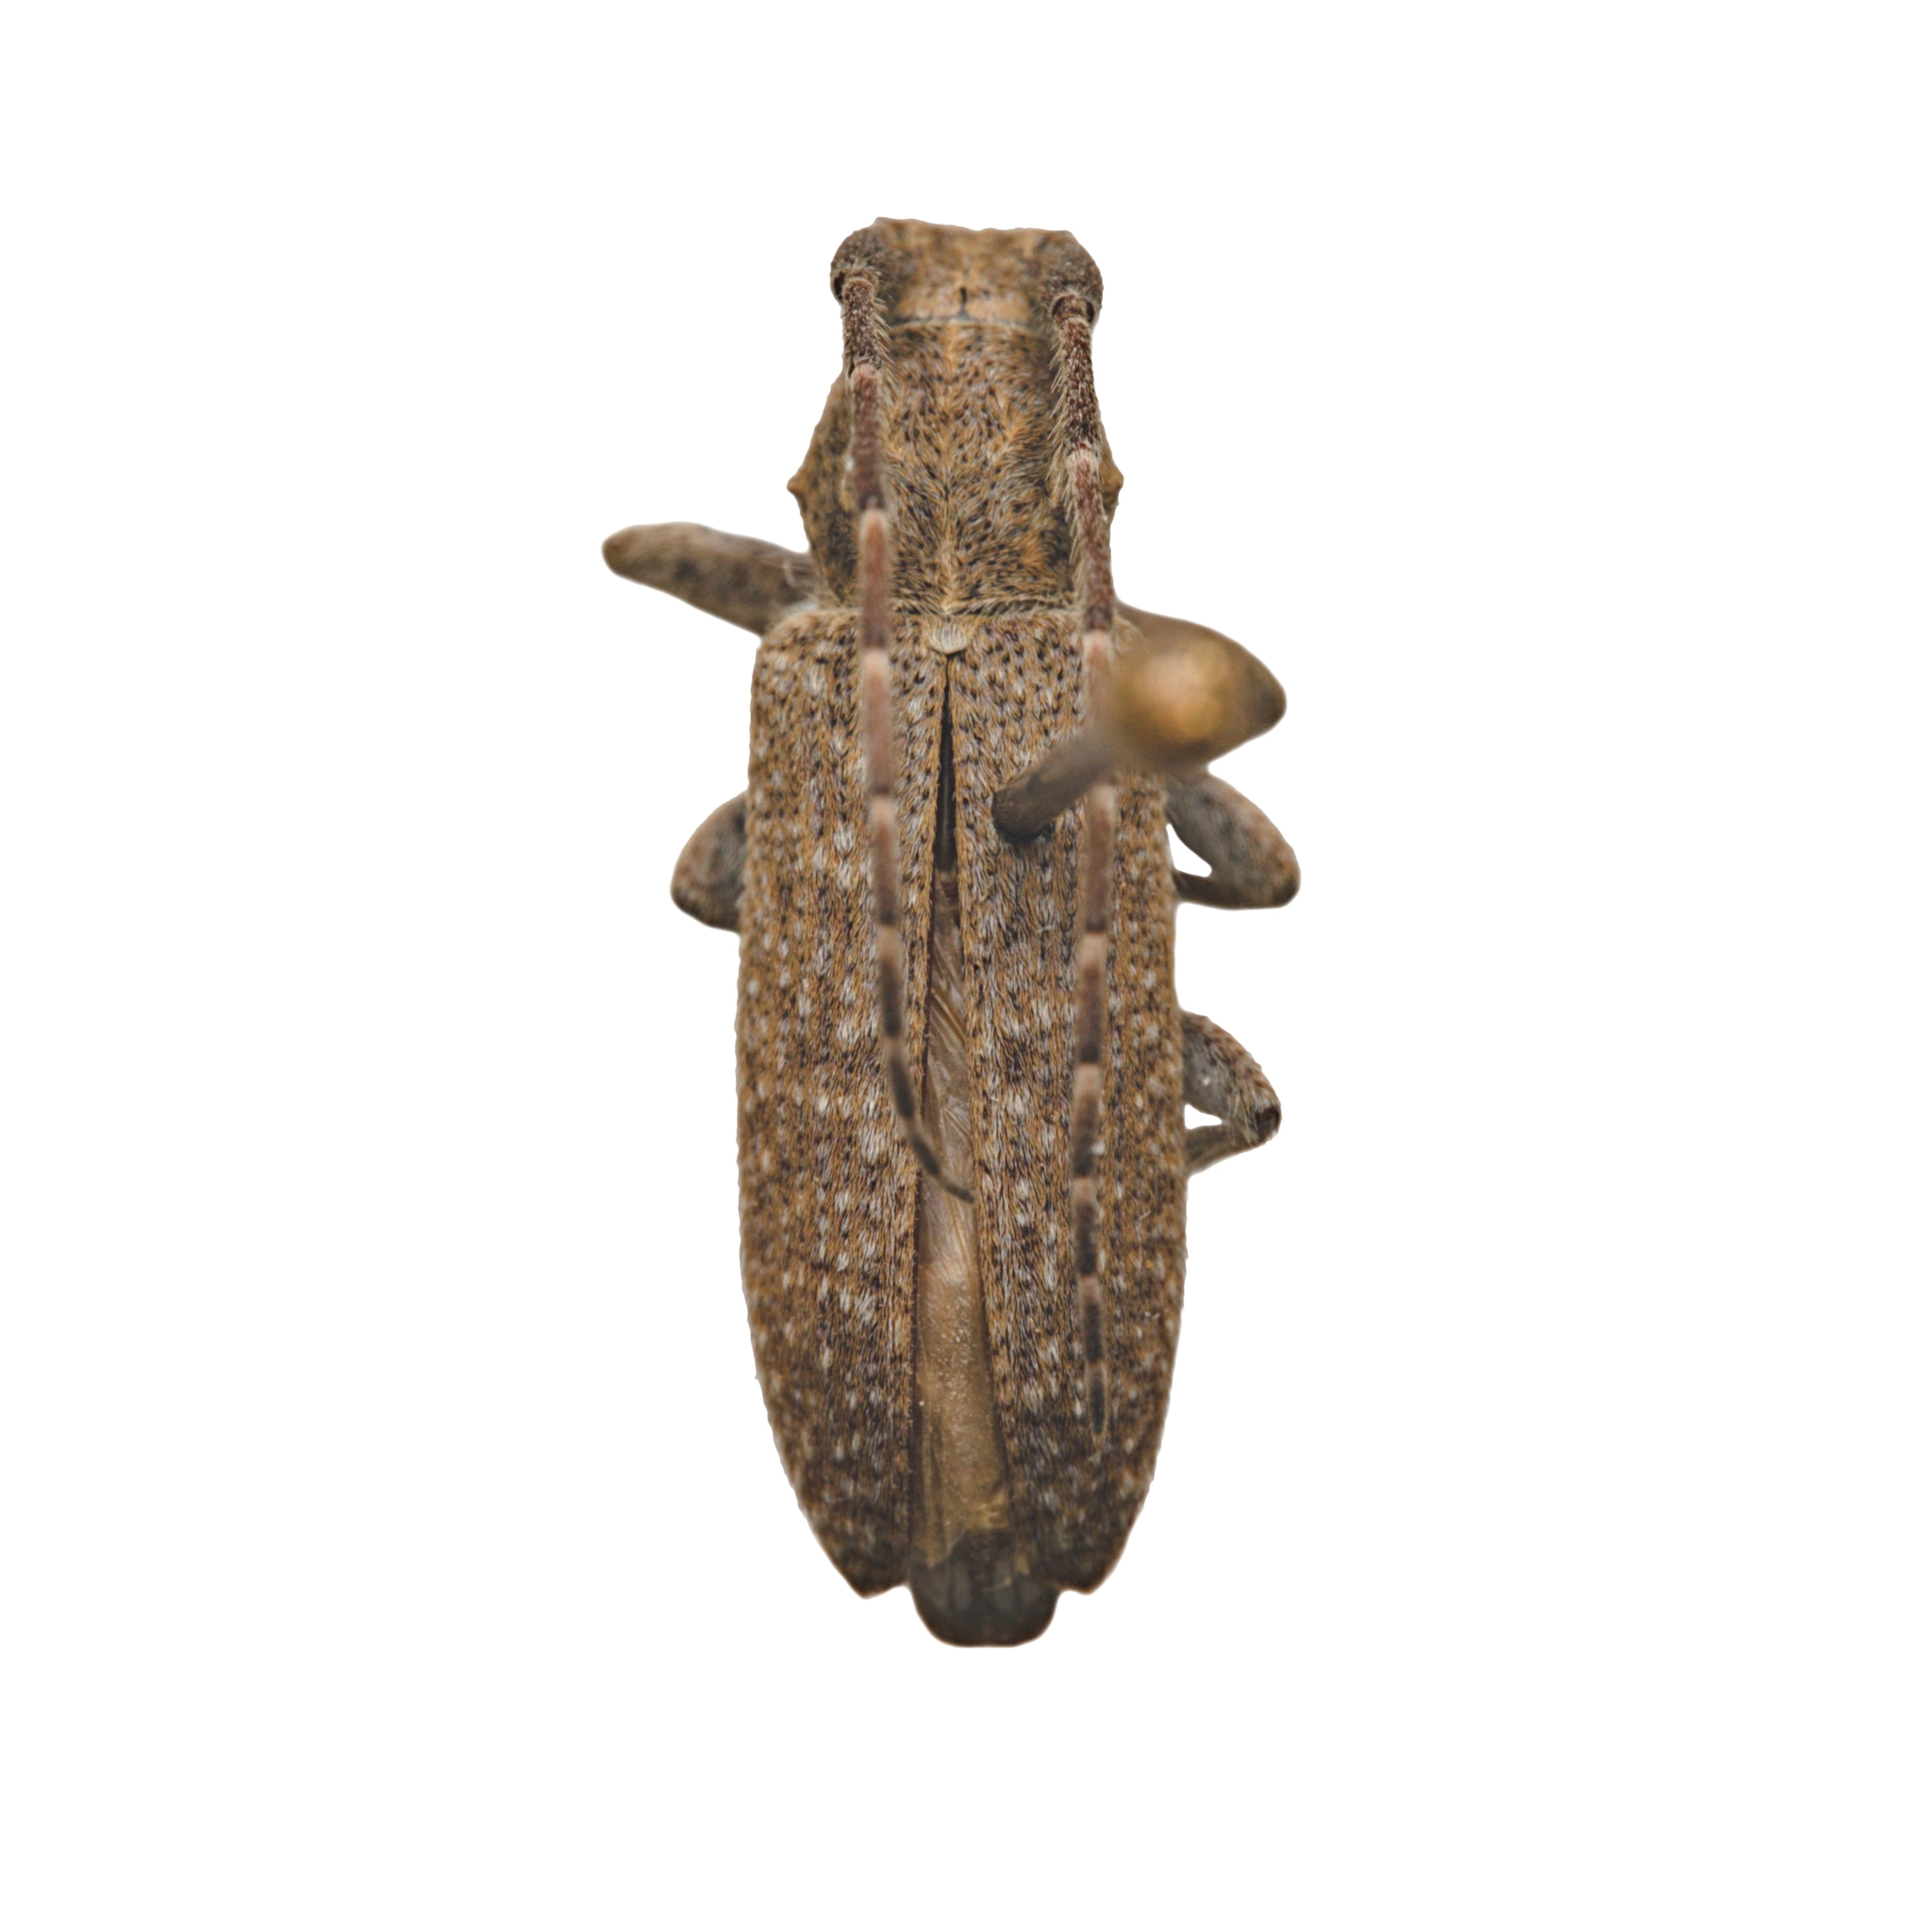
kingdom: Animalia
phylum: Arthropoda
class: Insecta
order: Coleoptera
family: Cerambycidae
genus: Ataxia
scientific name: Ataxia hubbardi
